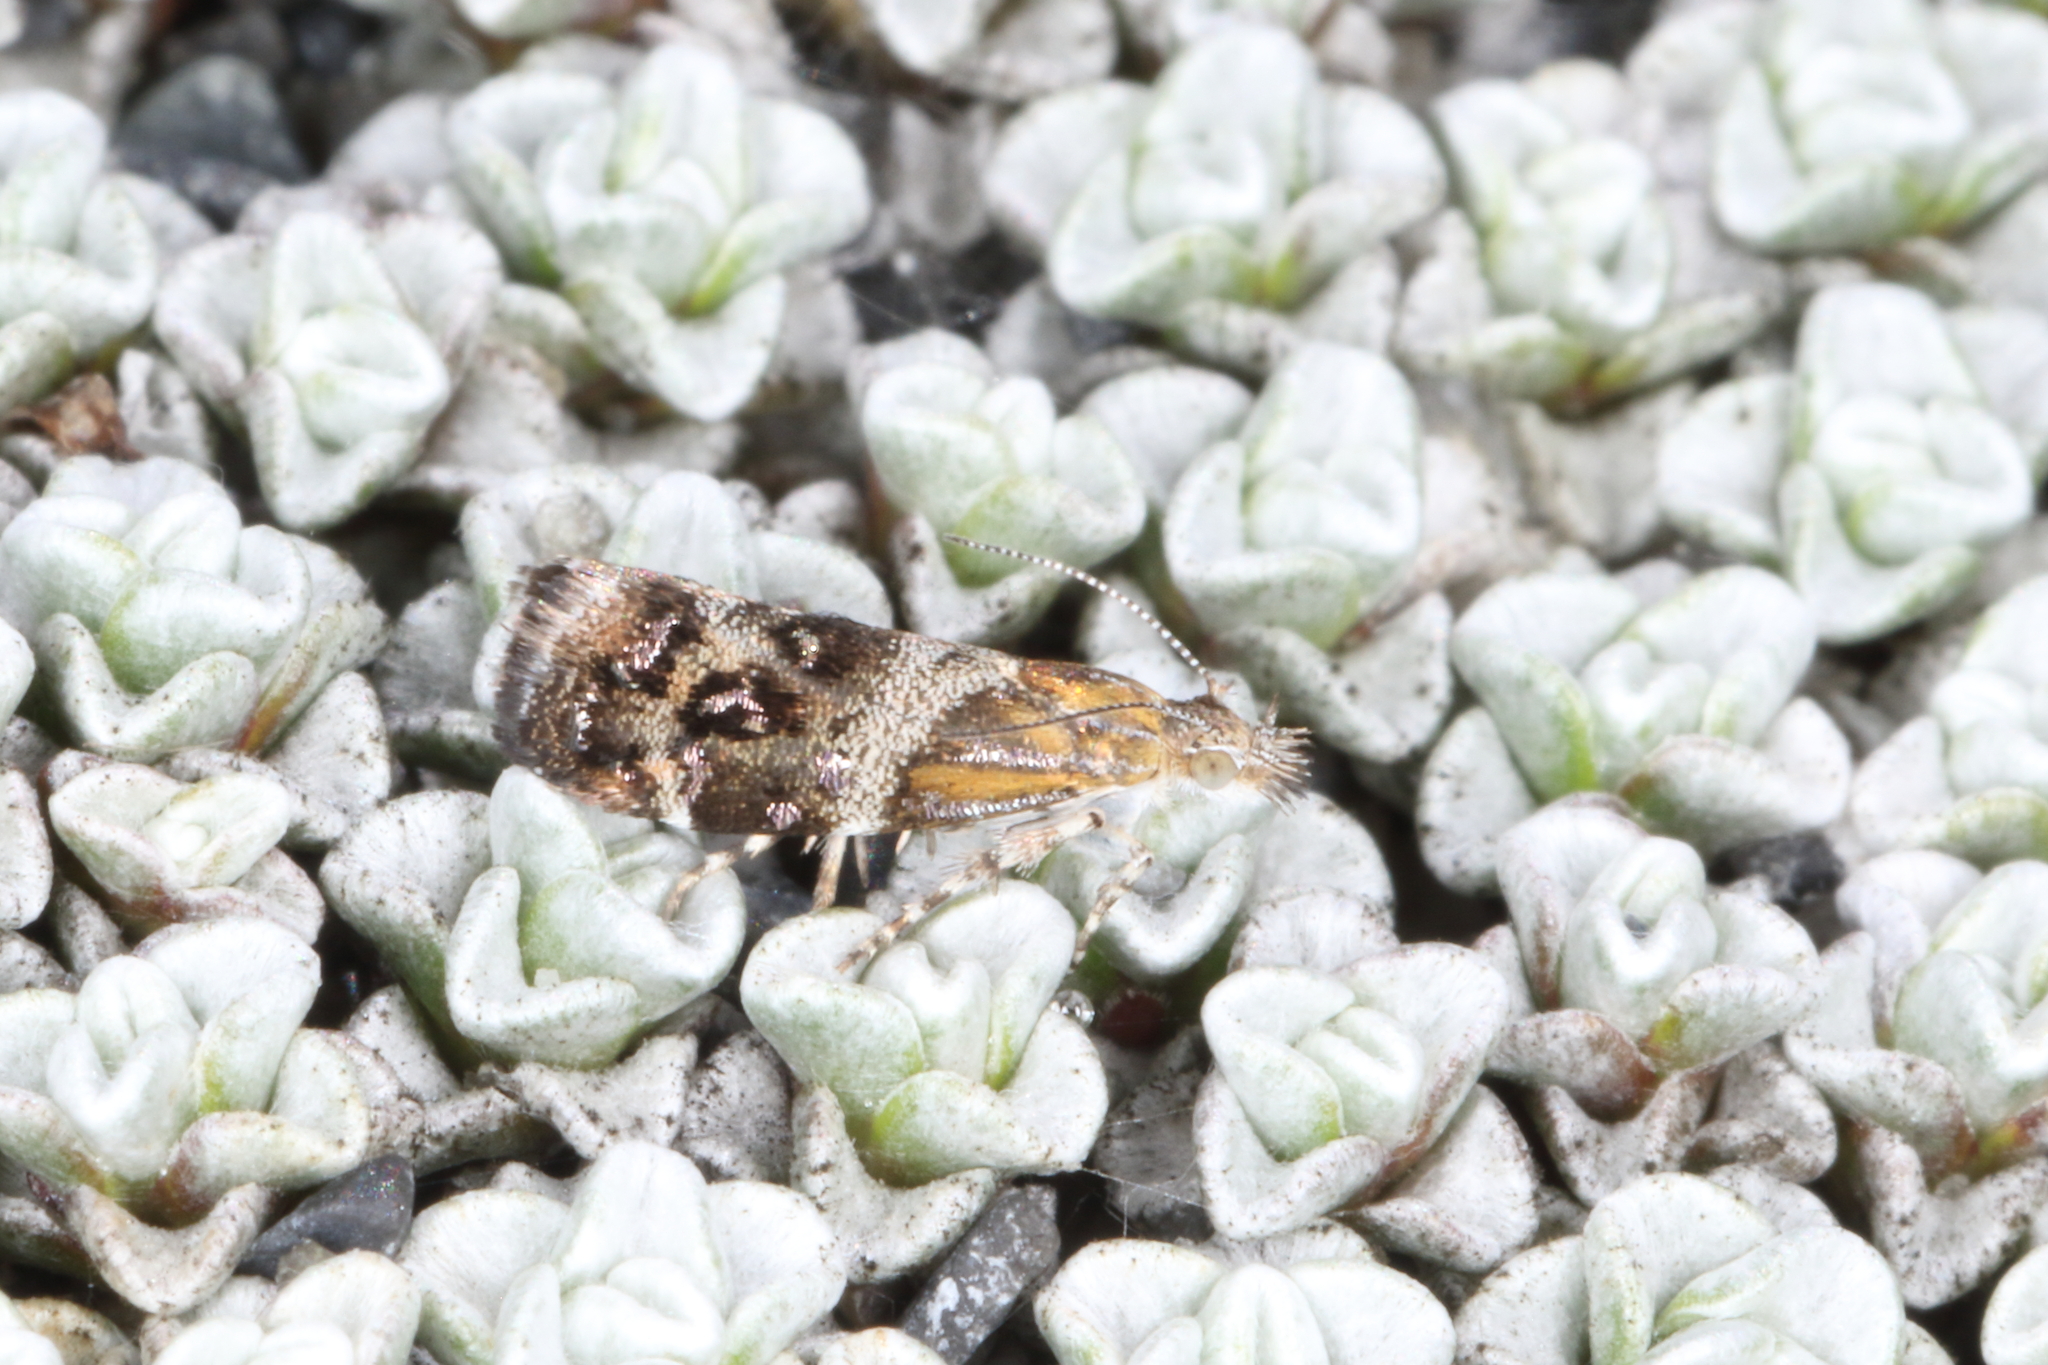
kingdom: Animalia
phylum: Arthropoda
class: Insecta
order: Lepidoptera
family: Choreutidae
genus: Tebenna
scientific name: Tebenna micalis
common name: Vagrant twitcher
